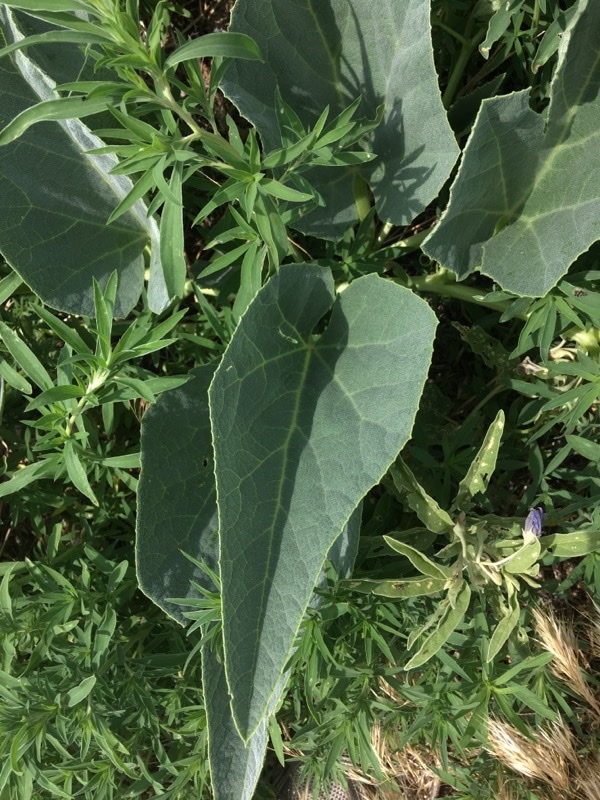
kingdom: Plantae
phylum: Tracheophyta
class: Magnoliopsida
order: Cucurbitales
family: Cucurbitaceae
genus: Cucurbita
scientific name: Cucurbita foetidissima
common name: Buffalo gourd
